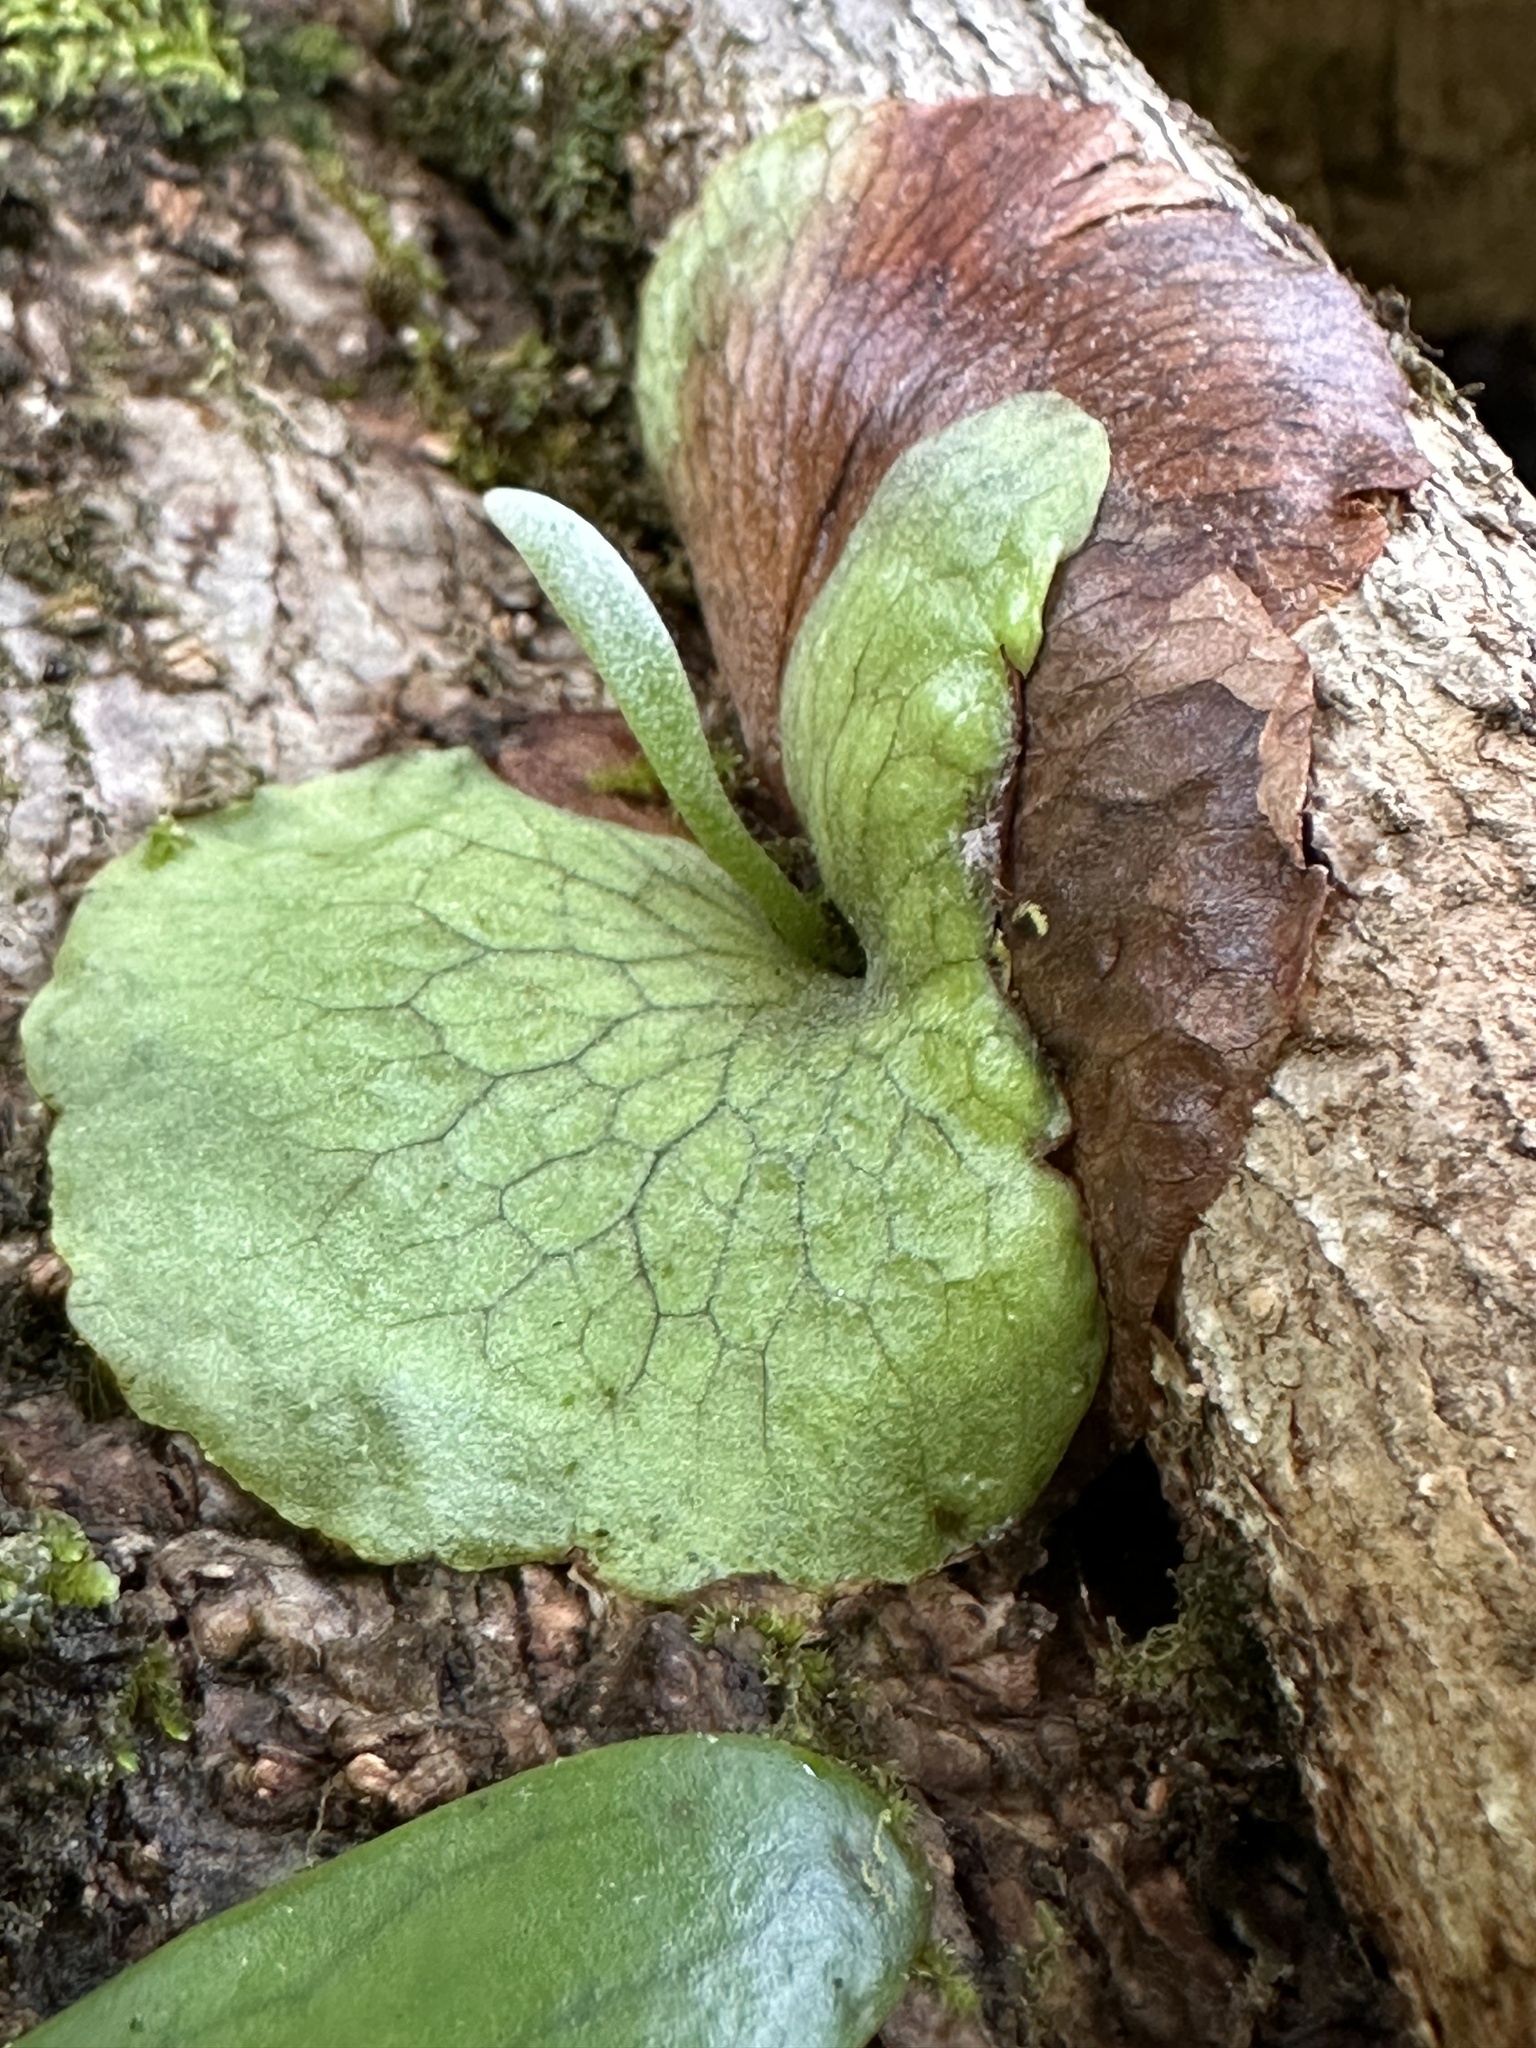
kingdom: Plantae
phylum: Tracheophyta
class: Polypodiopsida
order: Polypodiales
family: Polypodiaceae
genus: Platycerium
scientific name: Platycerium bifurcatum
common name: Elkhorn fern
